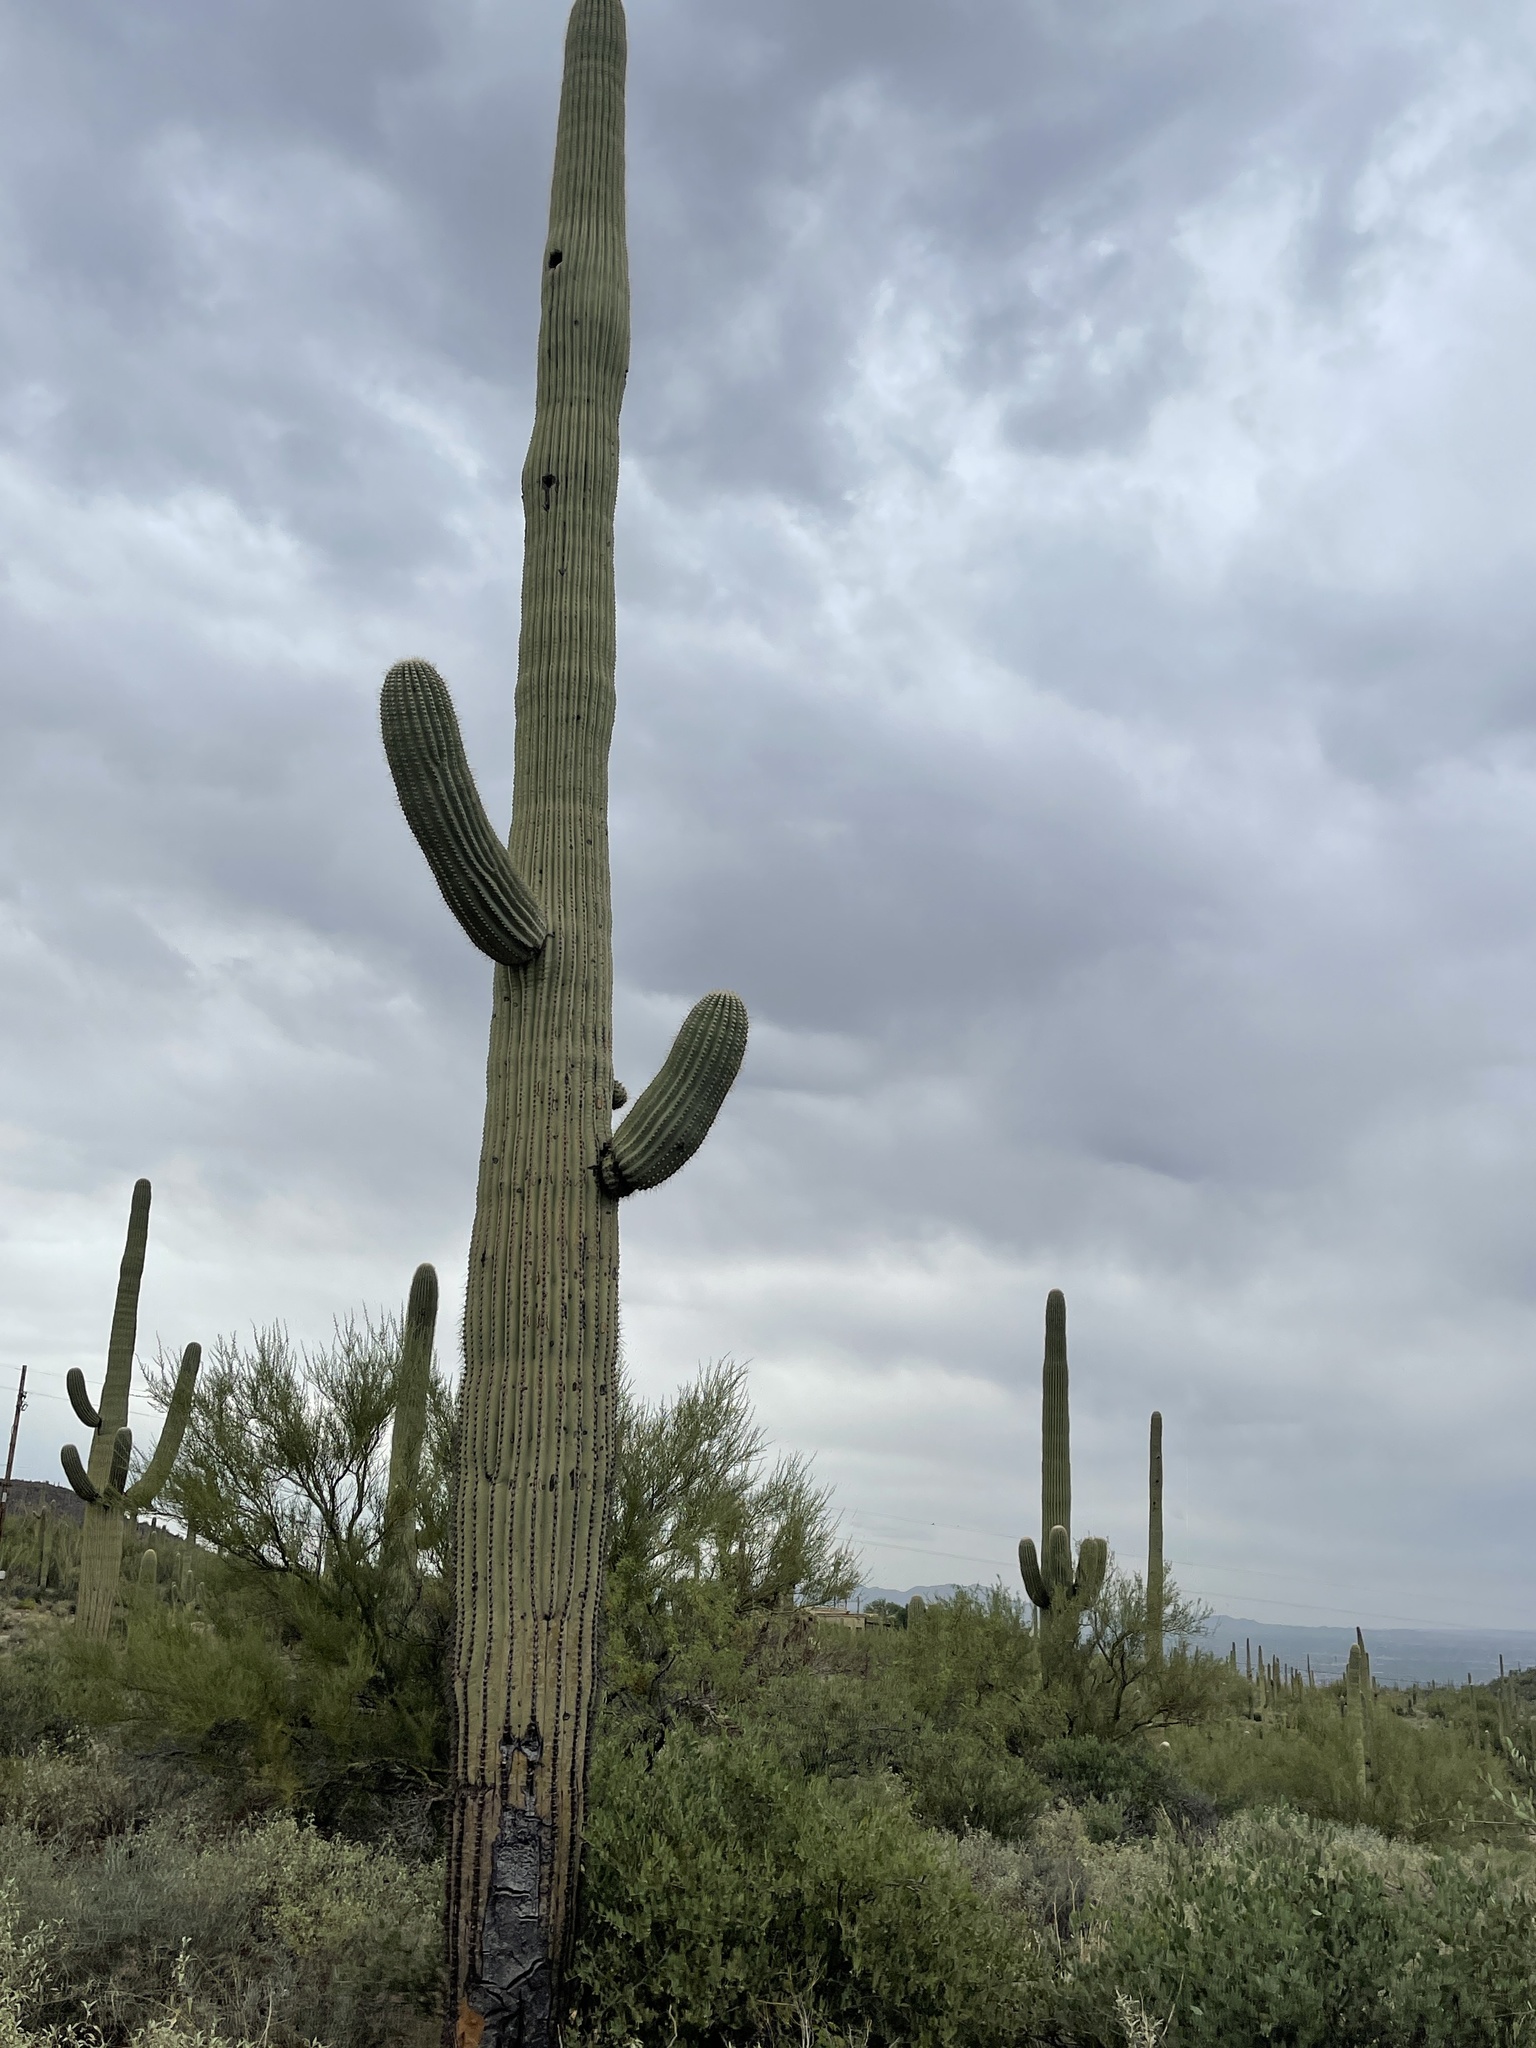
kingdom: Plantae
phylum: Tracheophyta
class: Magnoliopsida
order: Caryophyllales
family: Cactaceae
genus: Carnegiea
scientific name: Carnegiea gigantea
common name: Saguaro
